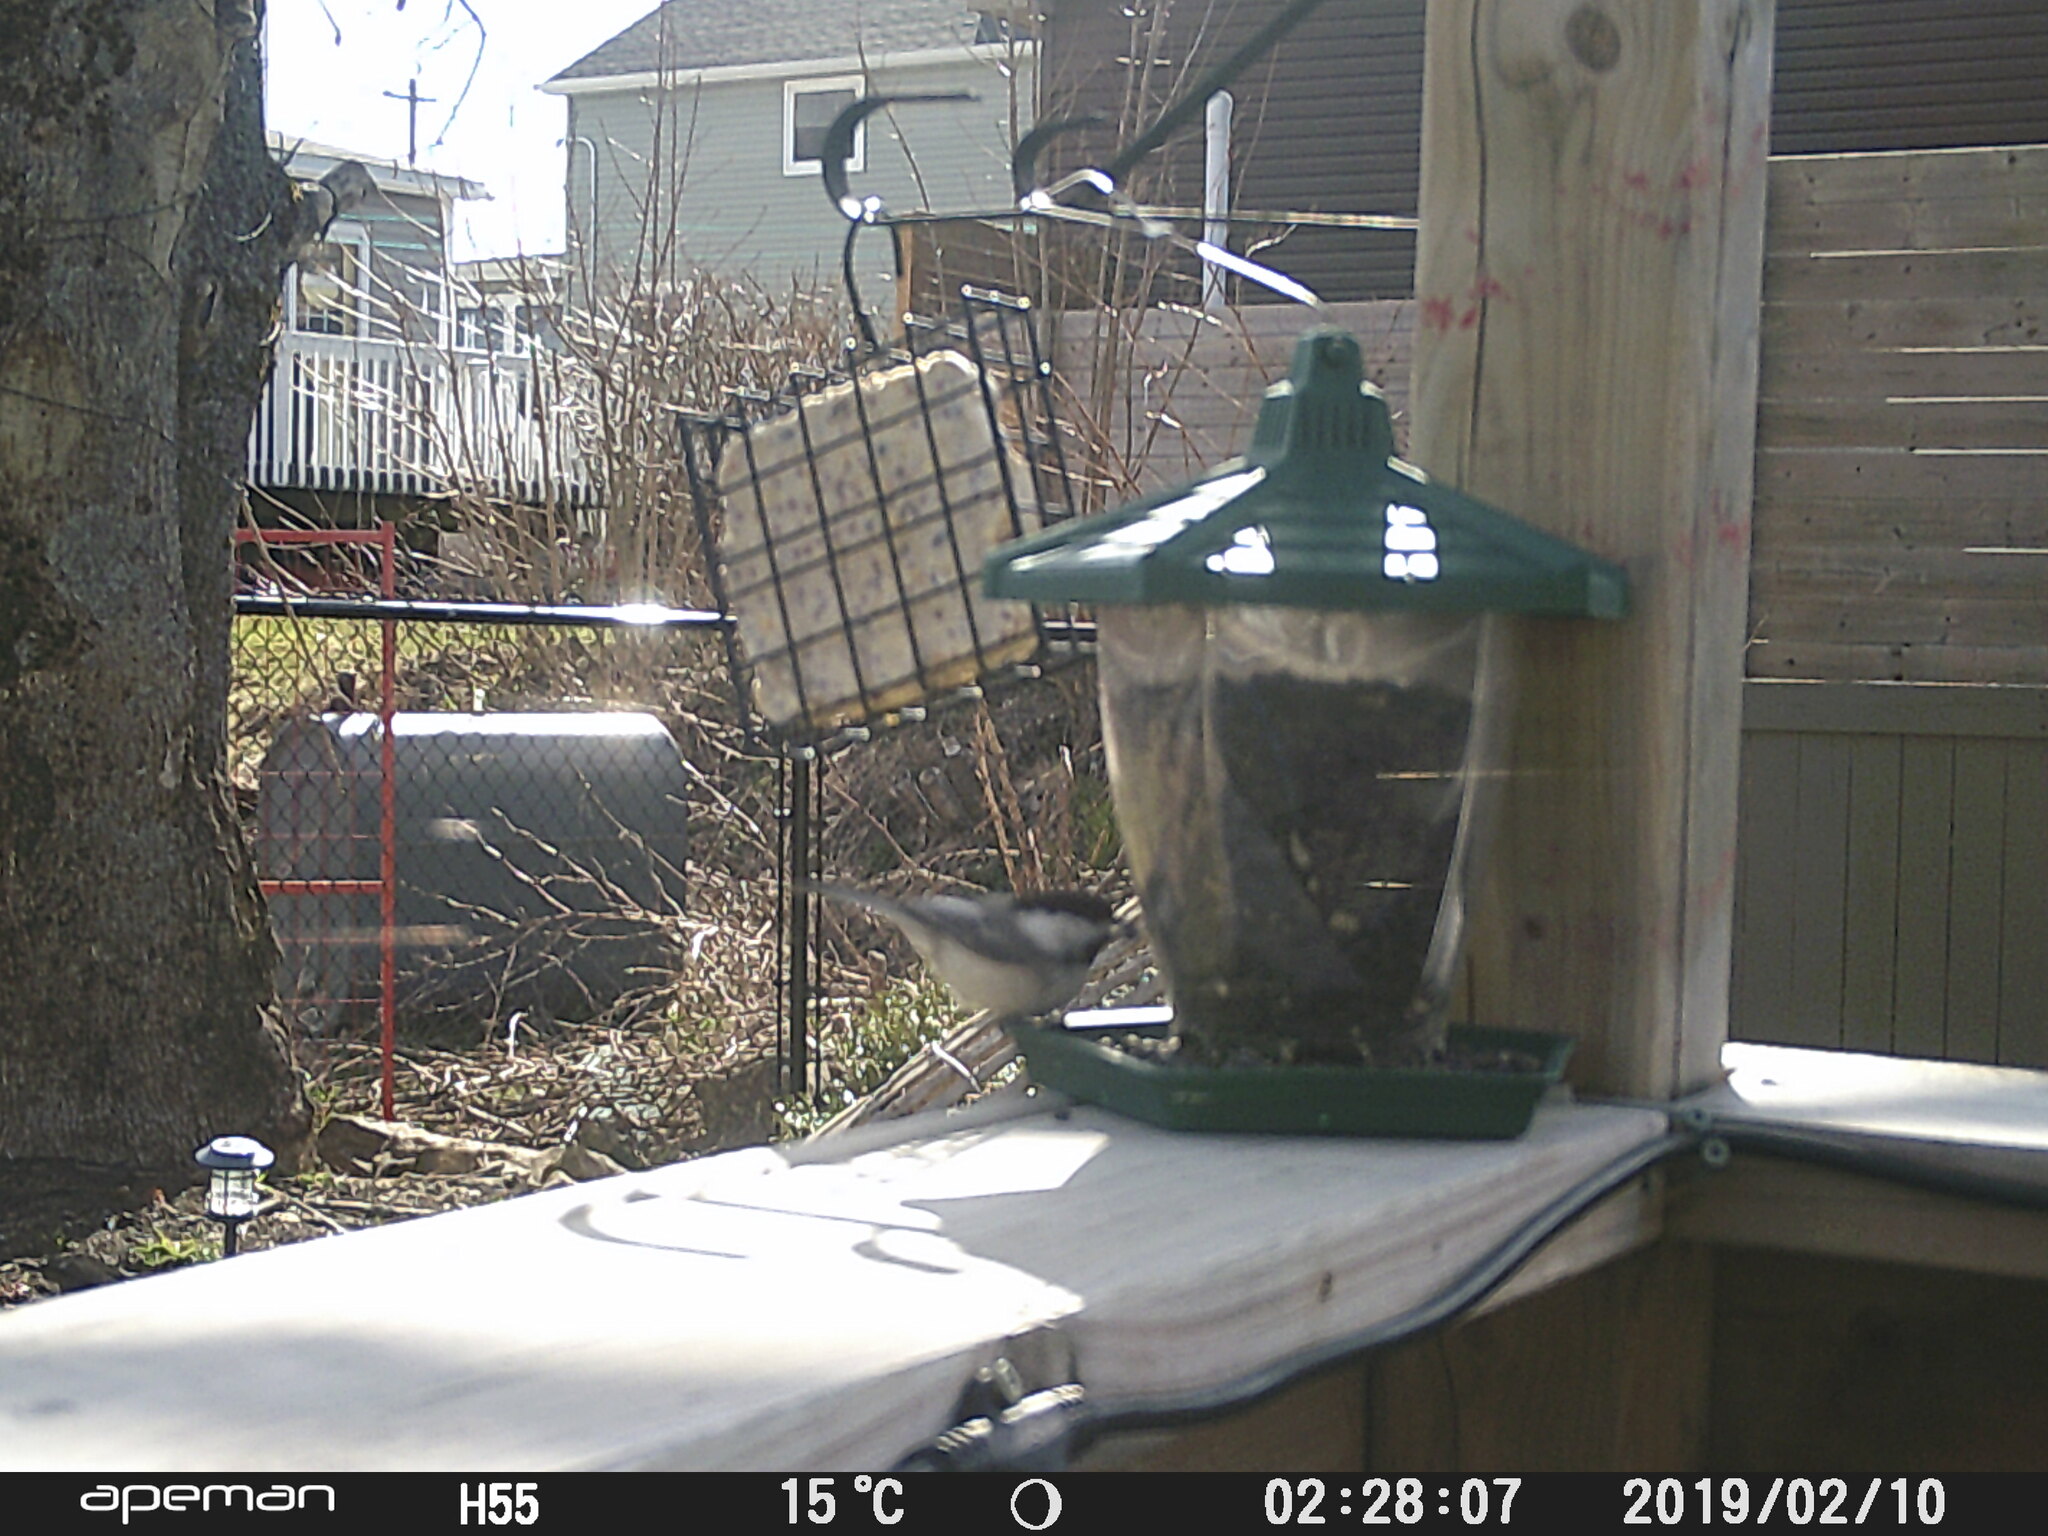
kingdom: Animalia
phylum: Chordata
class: Aves
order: Passeriformes
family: Paridae
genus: Poecile
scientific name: Poecile atricapillus
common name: Black-capped chickadee
